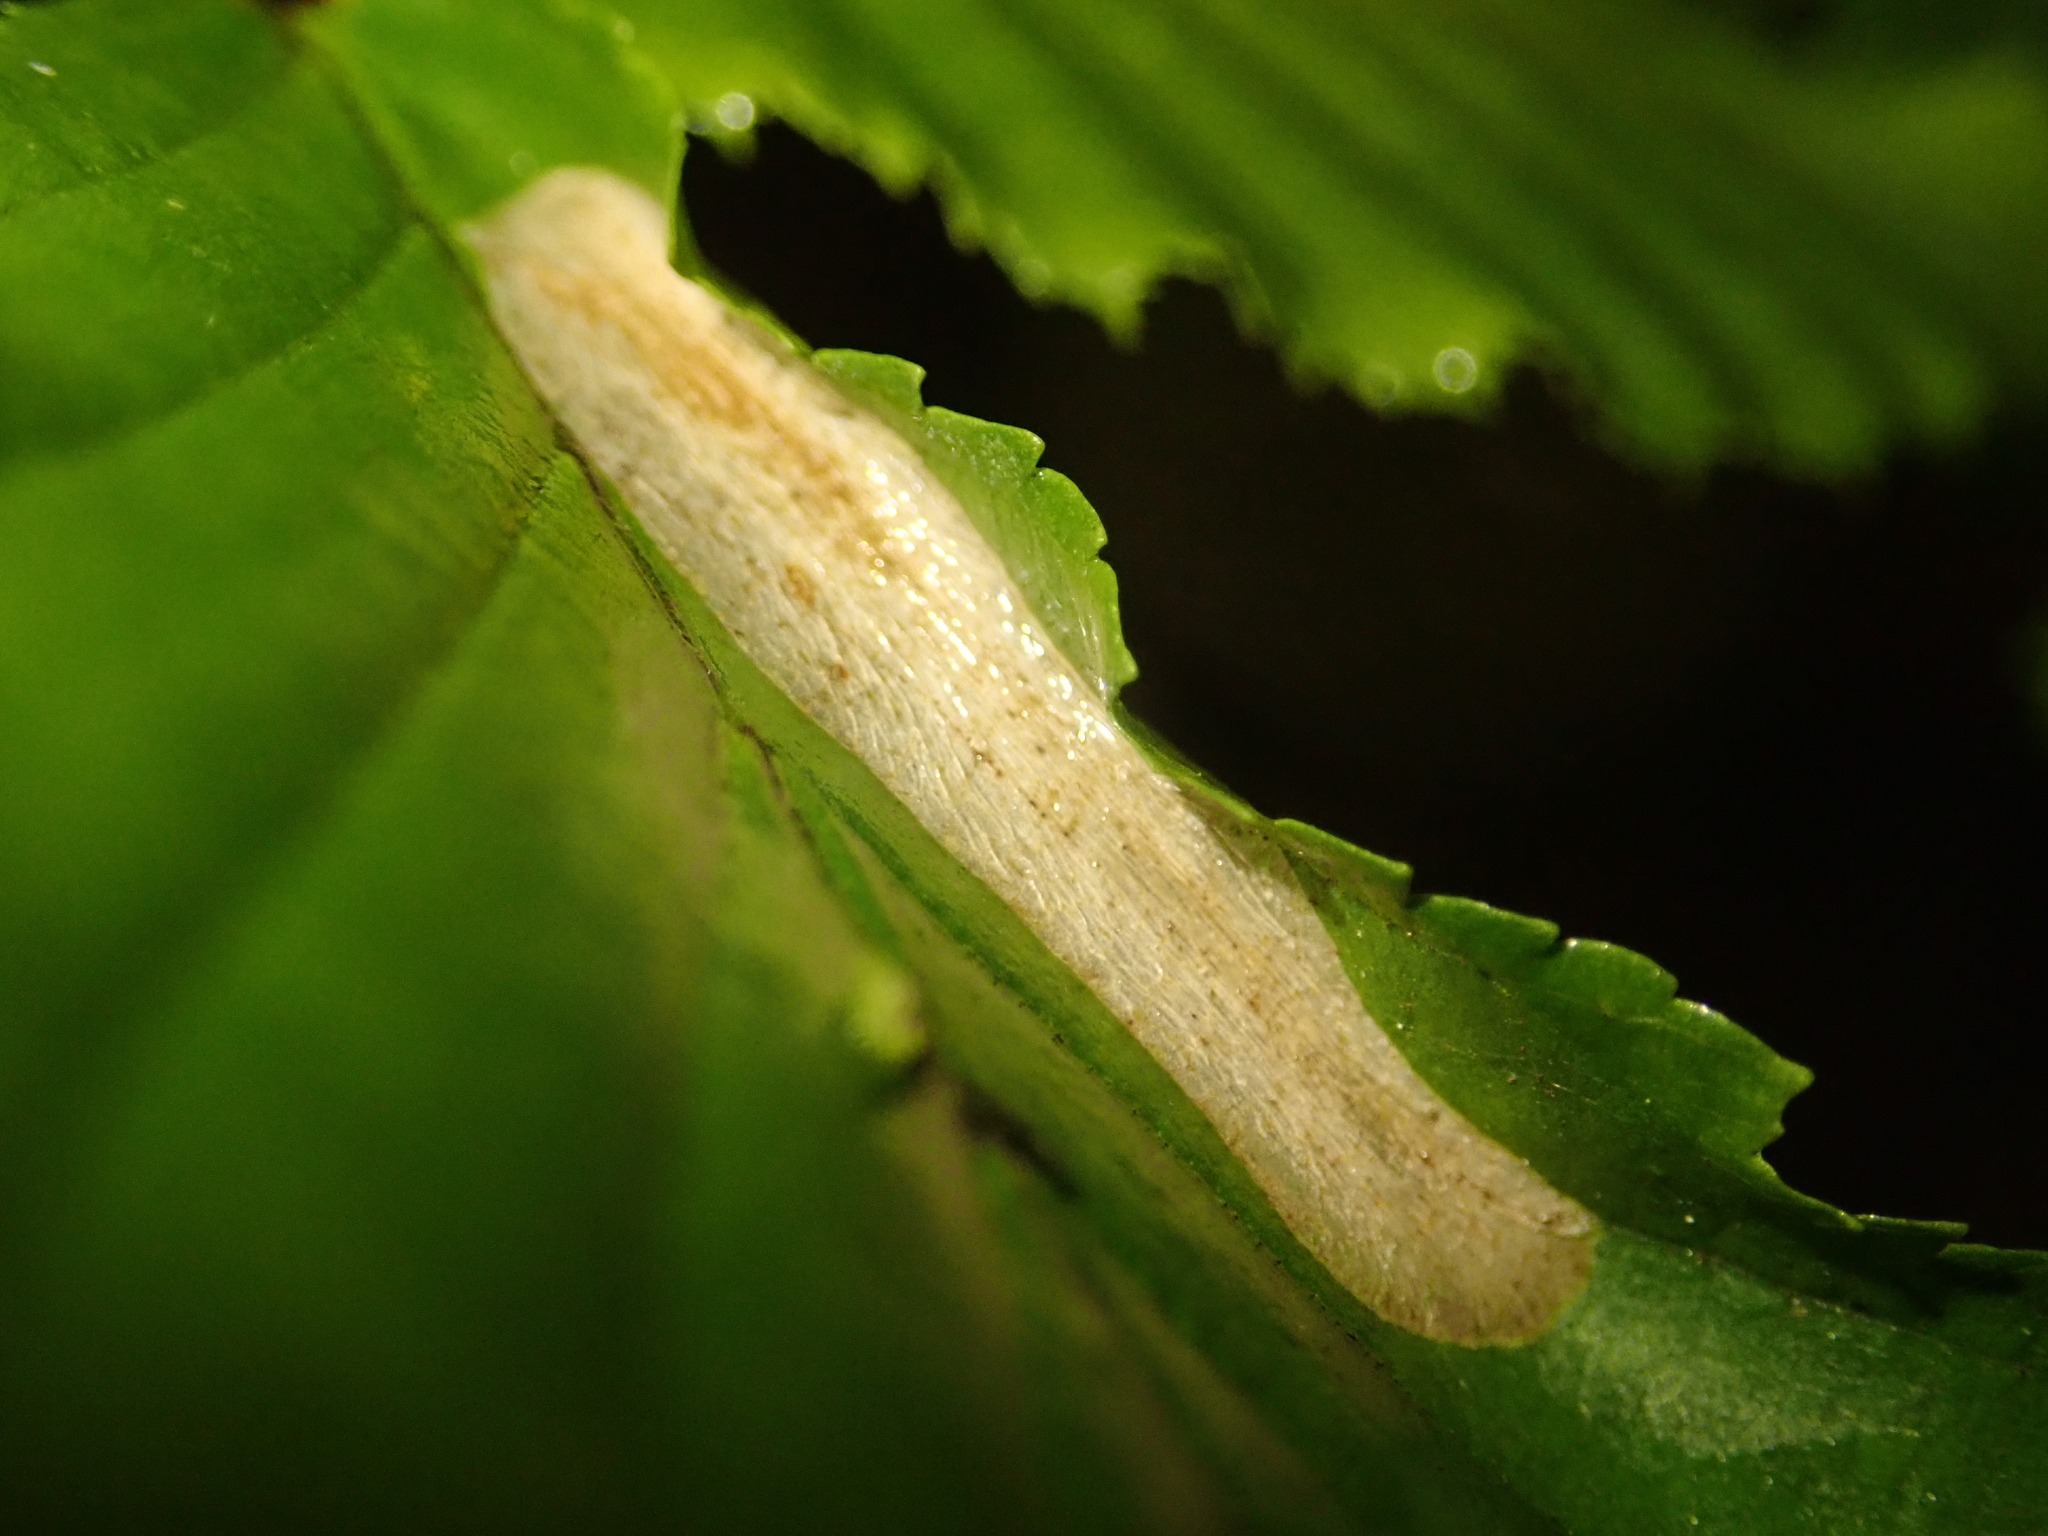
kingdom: Animalia
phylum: Arthropoda
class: Insecta
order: Lepidoptera
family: Gracillariidae
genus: Phyllonorycter
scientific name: Phyllonorycter tenerella
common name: Hornbeam midget
